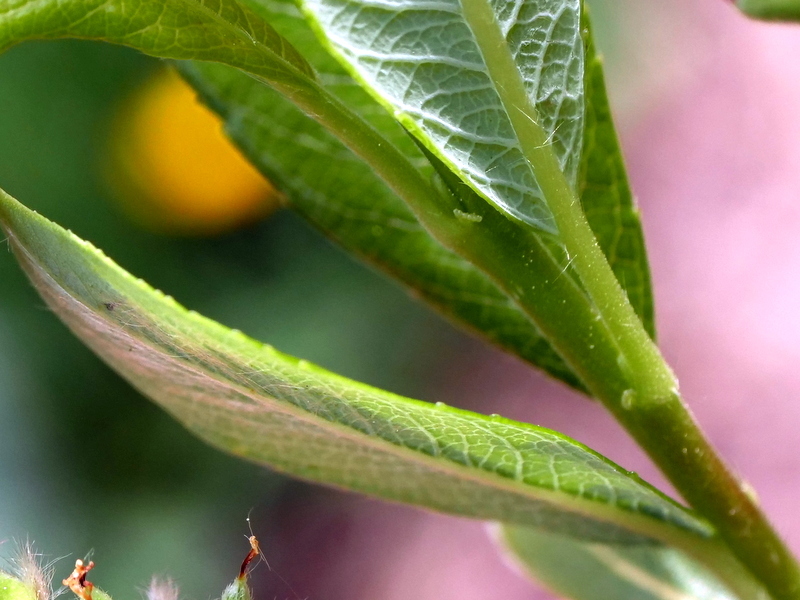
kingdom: Plantae
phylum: Tracheophyta
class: Magnoliopsida
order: Malpighiales
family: Salicaceae
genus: Salix
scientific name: Salix waldsteiniana
